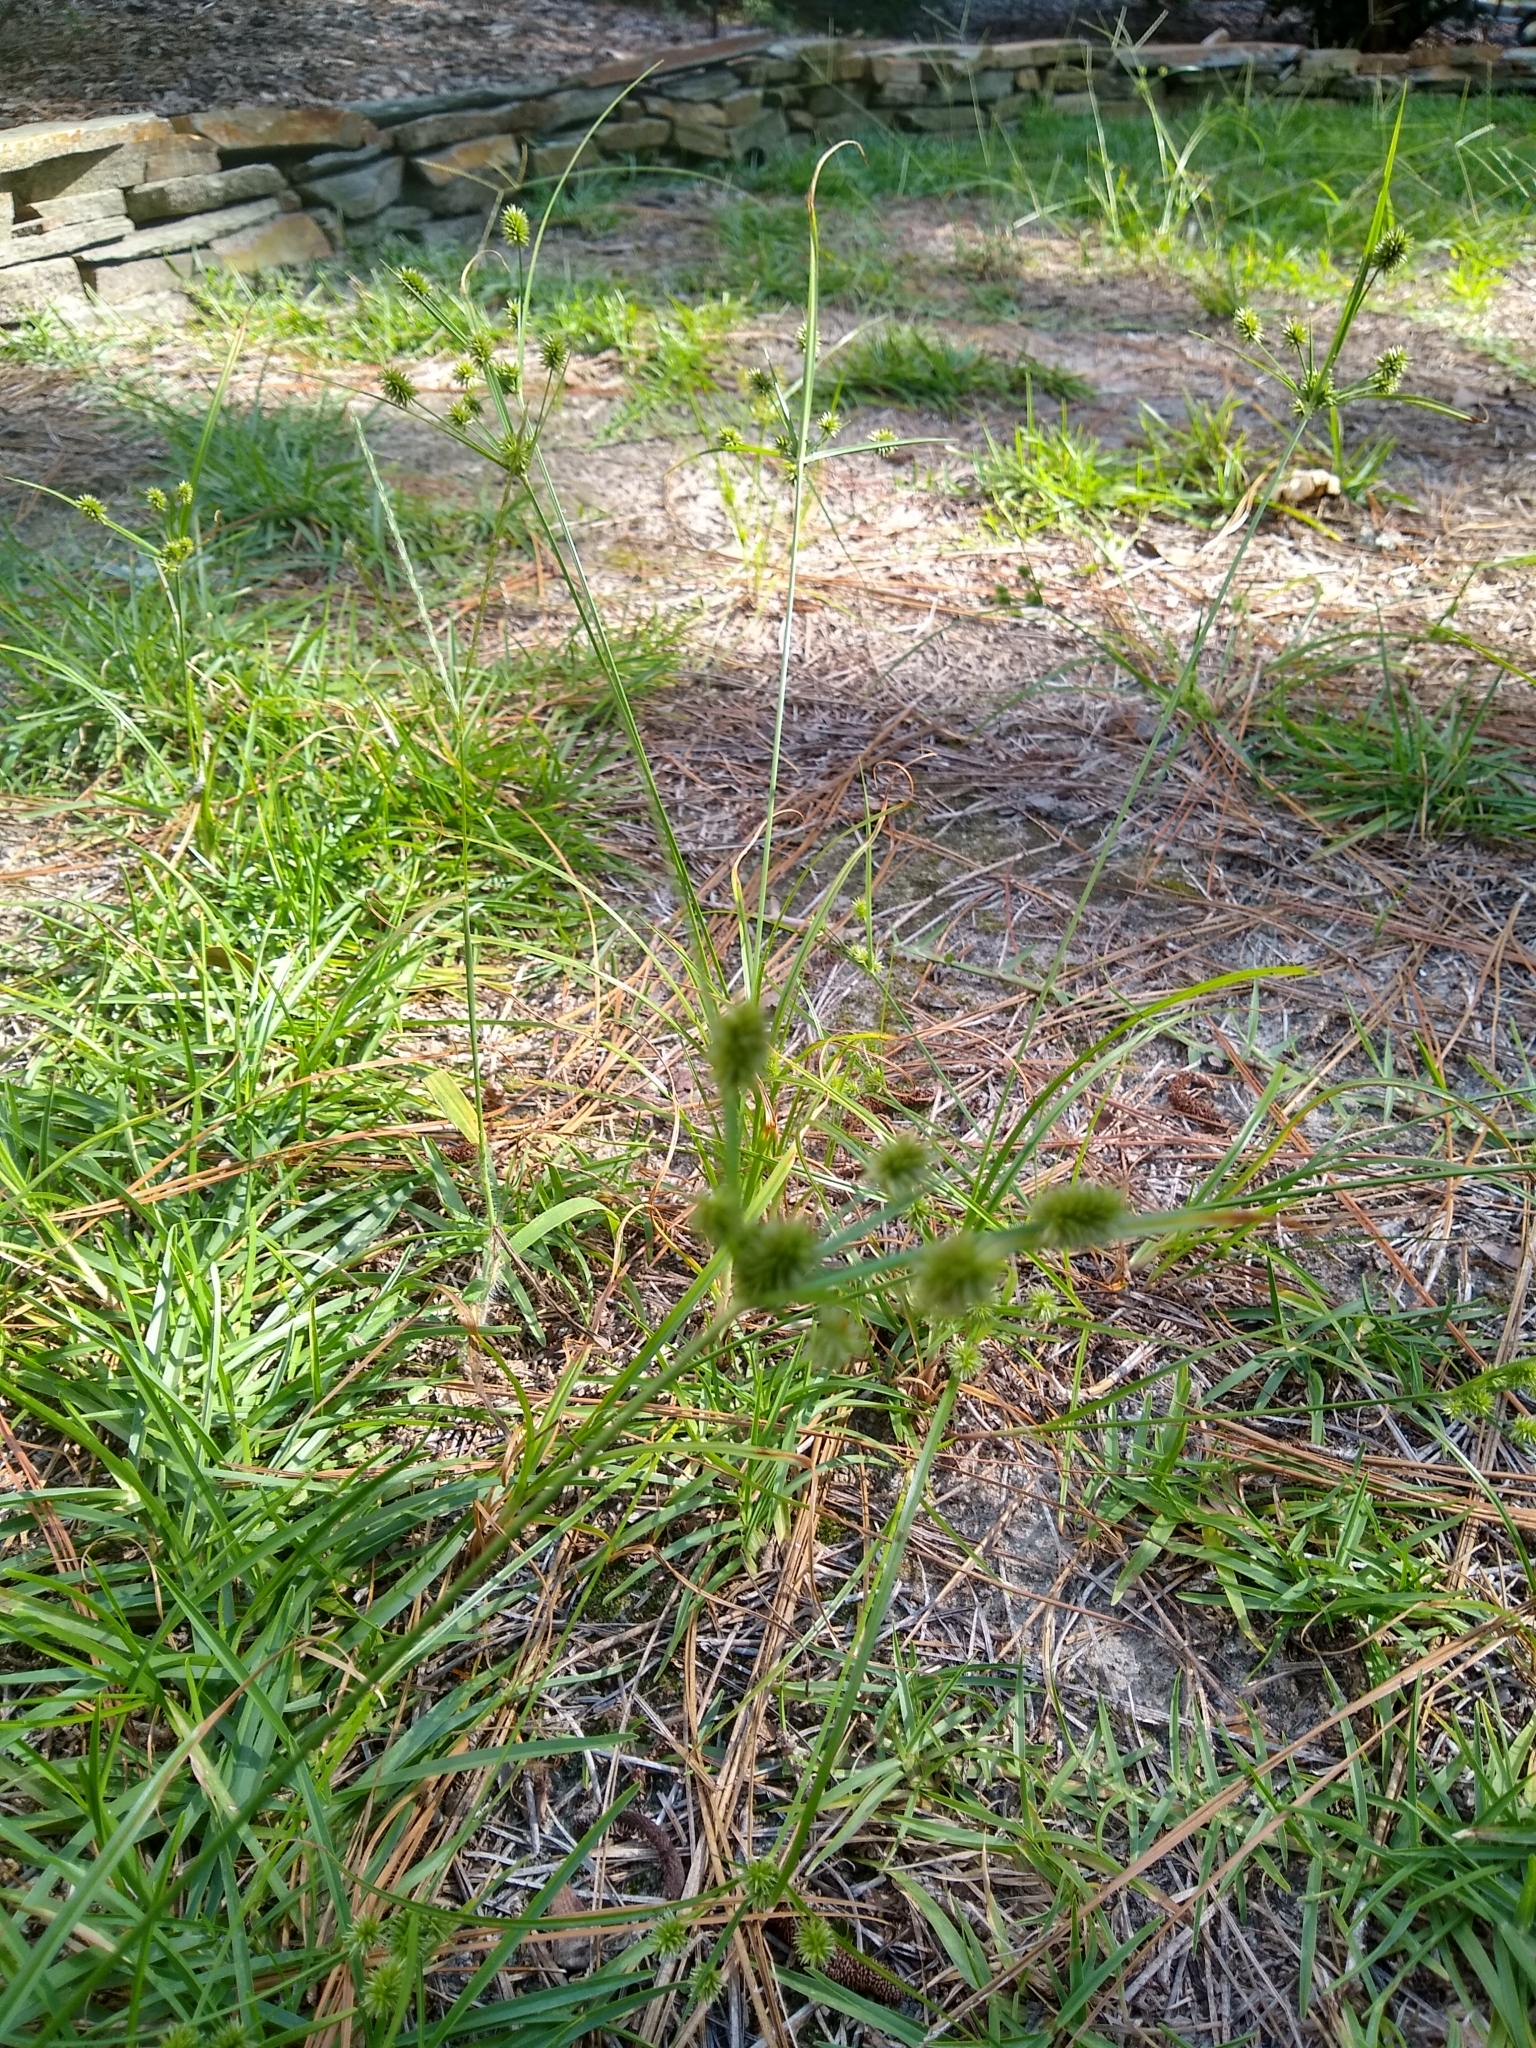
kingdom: Plantae
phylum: Tracheophyta
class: Liliopsida
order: Poales
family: Cyperaceae
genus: Cyperus
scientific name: Cyperus retrorsus
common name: Pinebarren flat sedge
